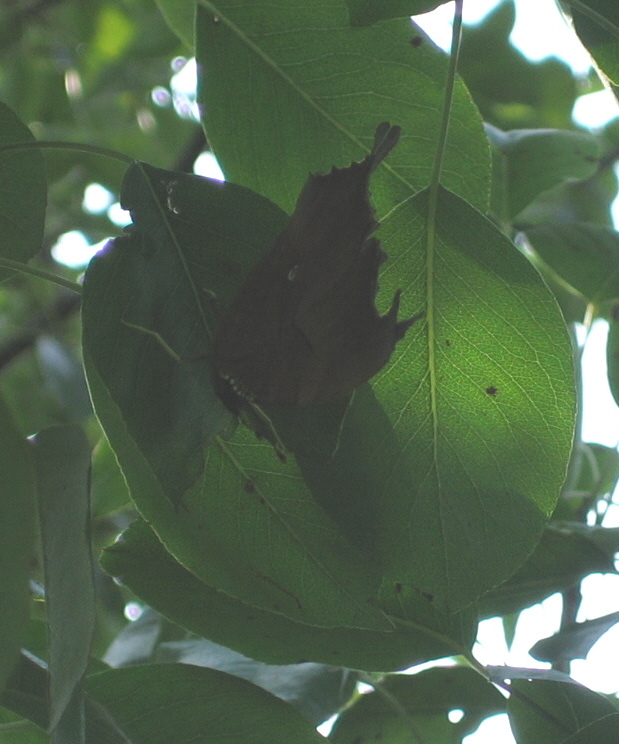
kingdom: Animalia
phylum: Arthropoda
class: Insecta
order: Lepidoptera
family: Nymphalidae
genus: Polygonia
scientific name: Polygonia interrogationis
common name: Question mark
